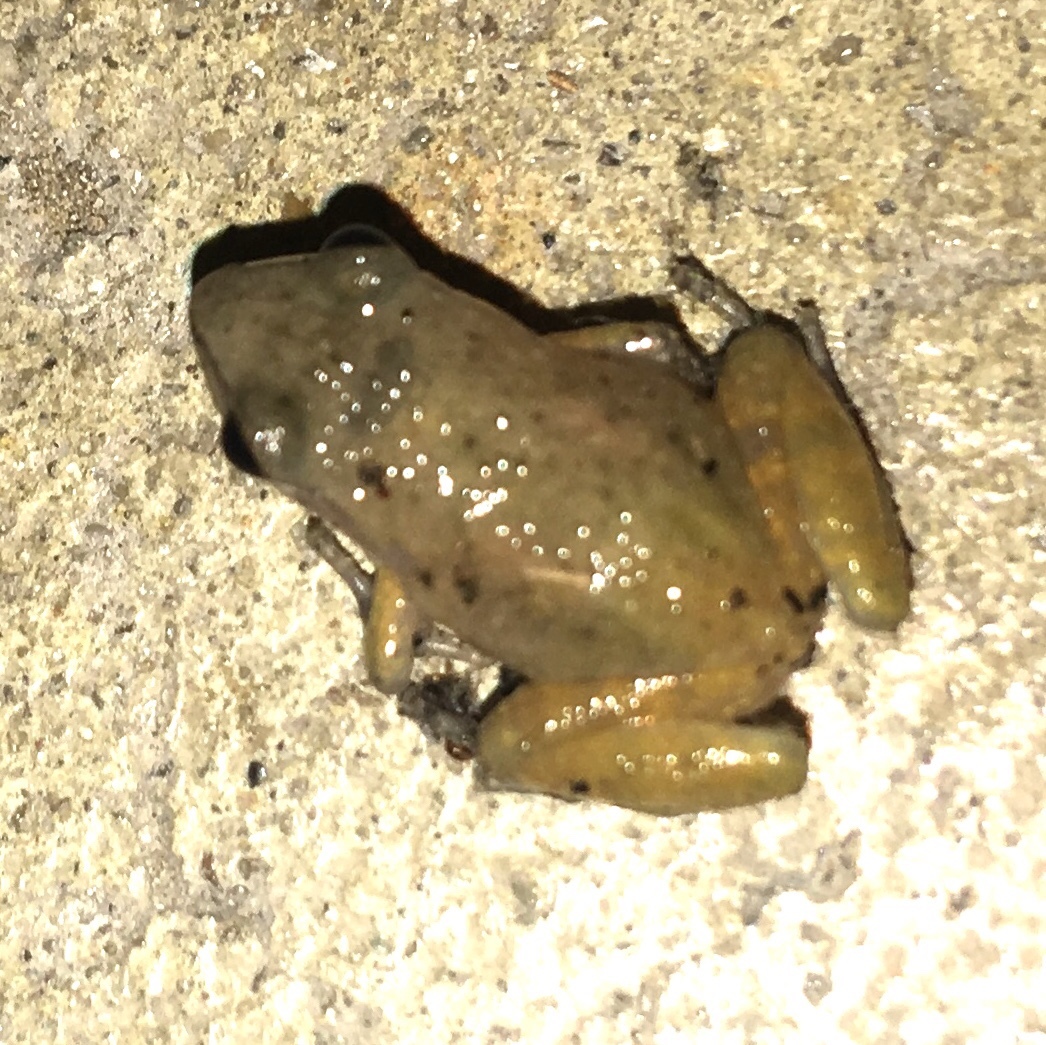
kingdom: Animalia
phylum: Chordata
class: Amphibia
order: Anura
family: Eleutherodactylidae
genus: Eleutherodactylus
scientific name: Eleutherodactylus campi
